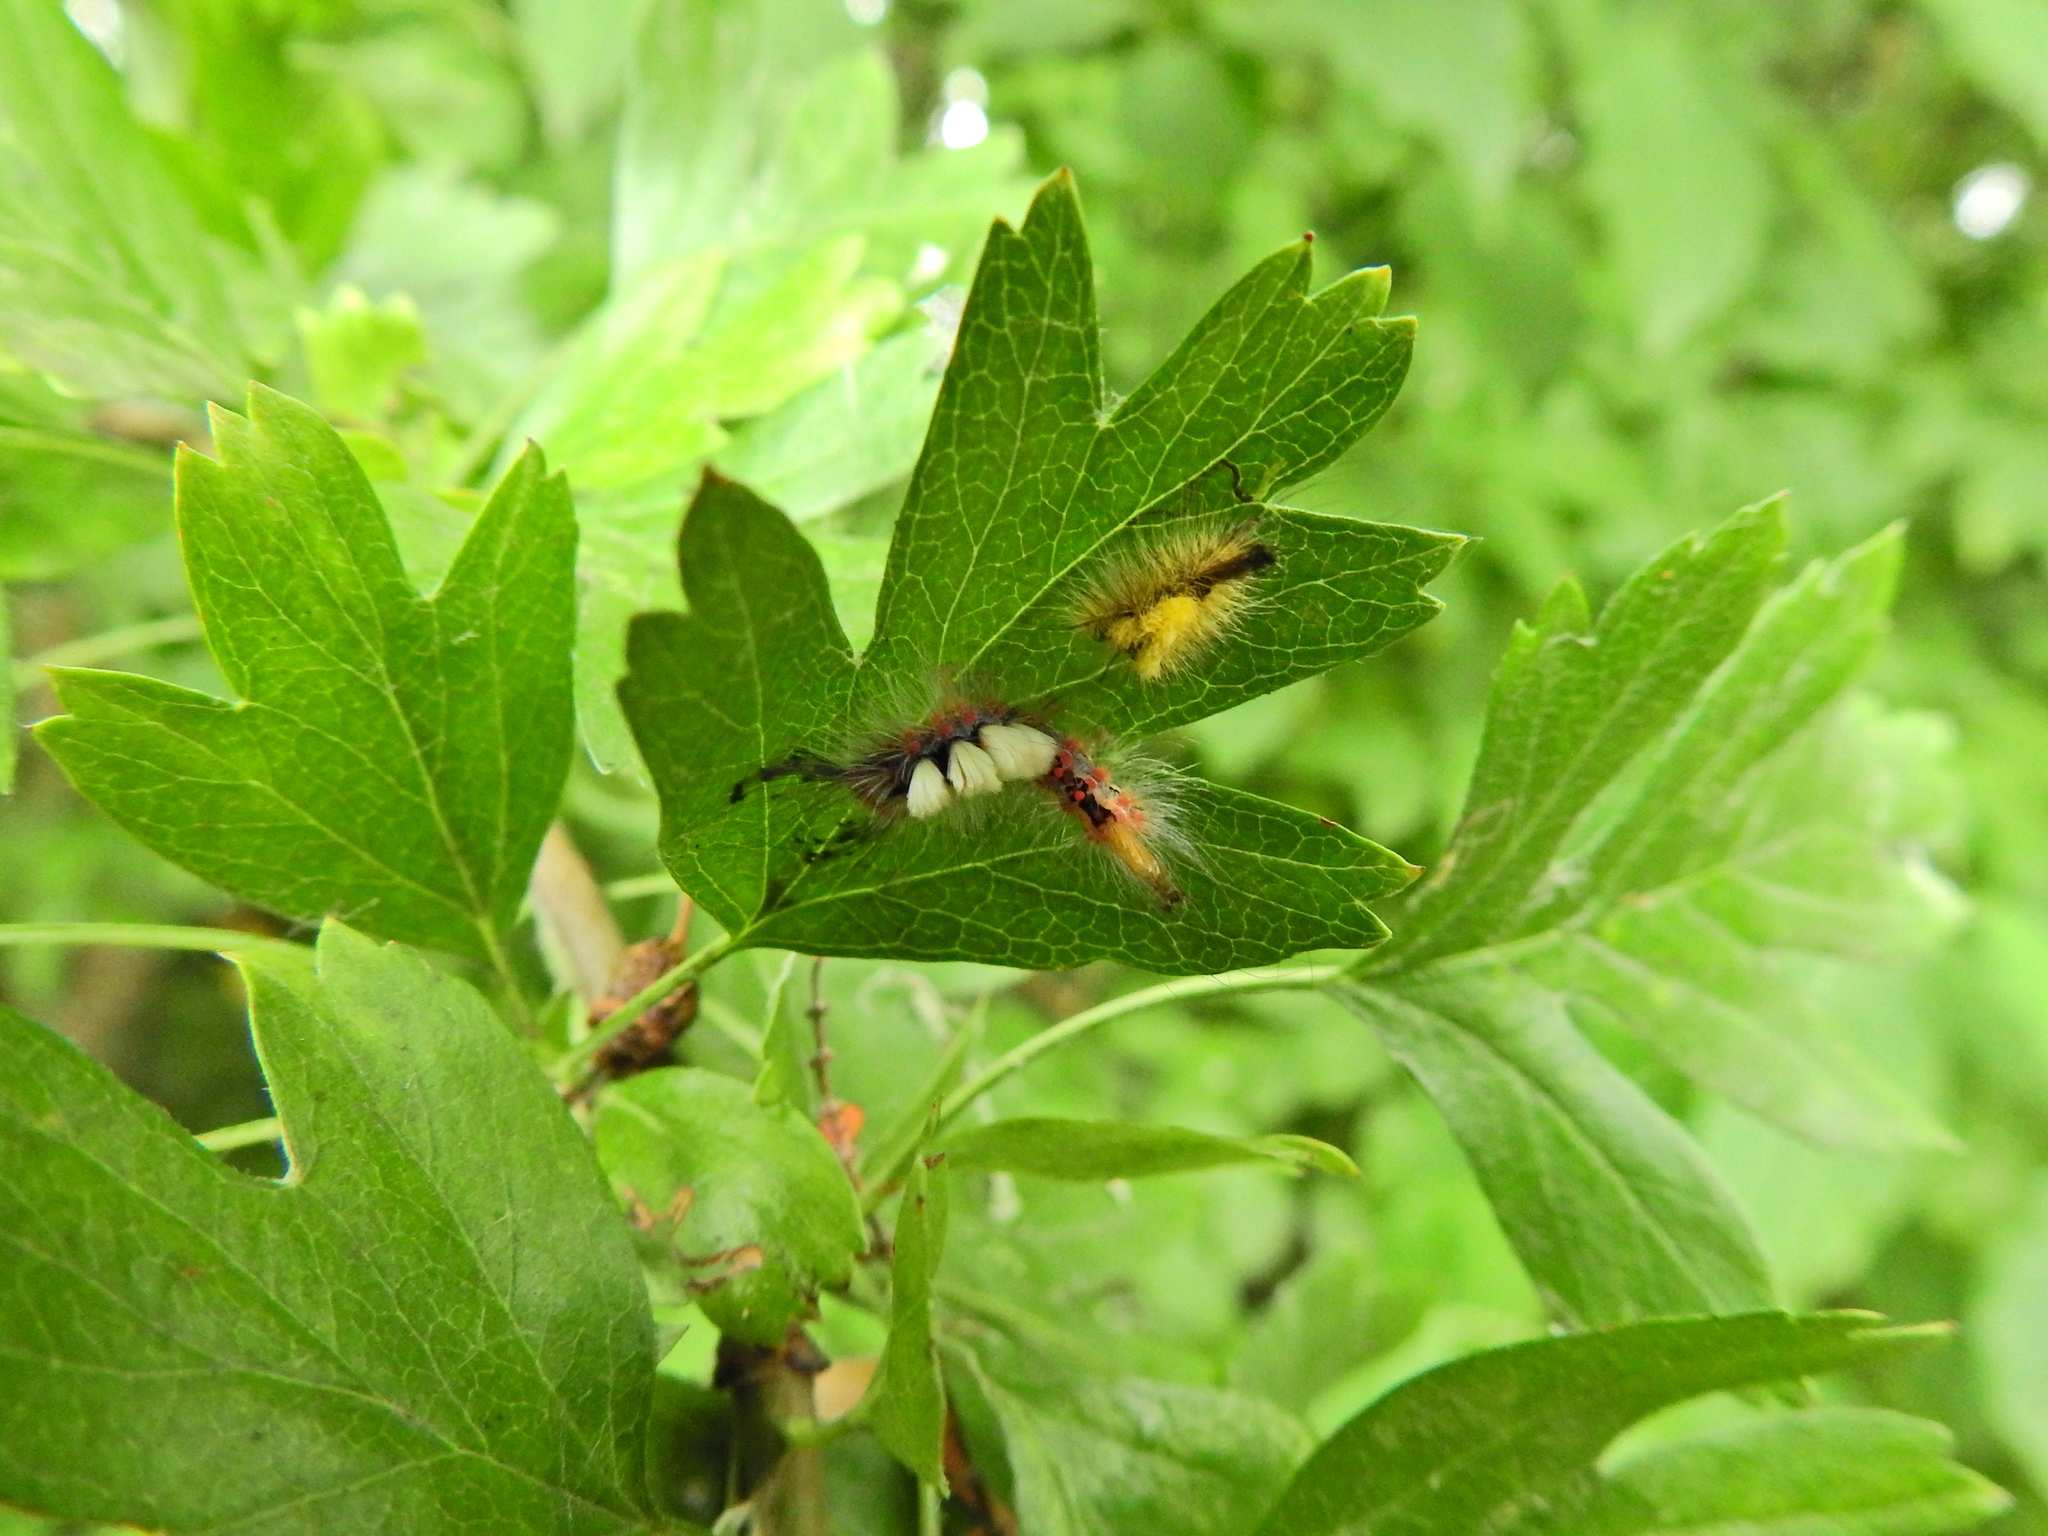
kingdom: Animalia
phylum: Arthropoda
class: Insecta
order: Lepidoptera
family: Erebidae
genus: Orgyia
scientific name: Orgyia antiqua
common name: Vapourer
